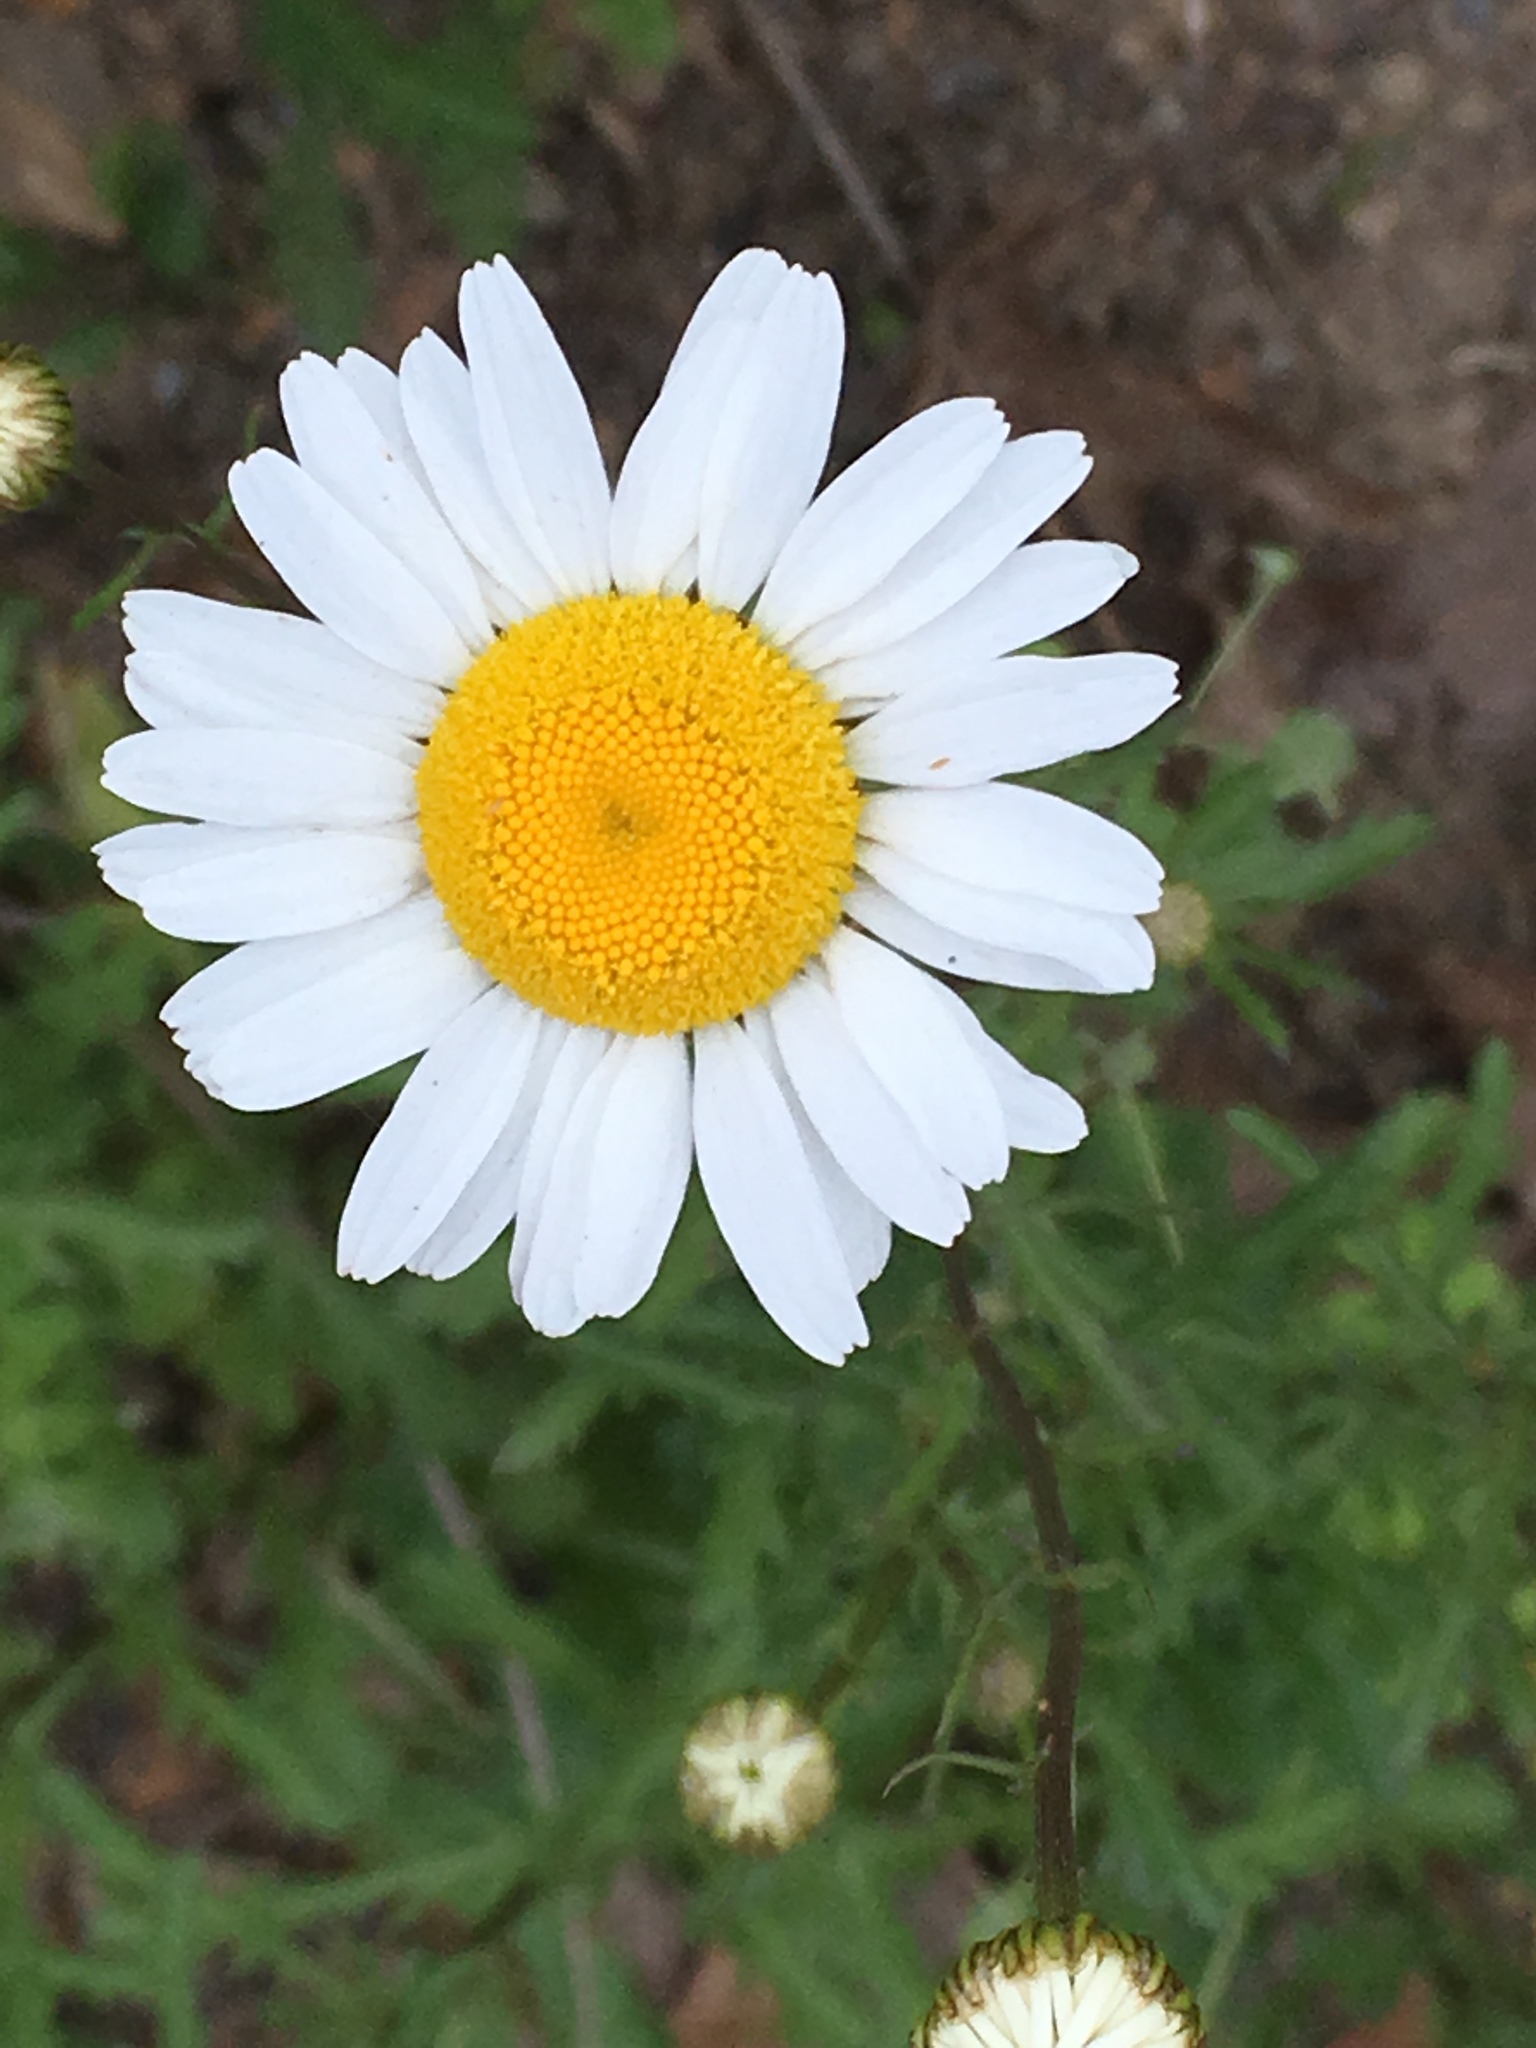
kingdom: Plantae
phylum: Tracheophyta
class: Magnoliopsida
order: Asterales
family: Asteraceae
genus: Leucanthemum
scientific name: Leucanthemum vulgare
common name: Oxeye daisy
